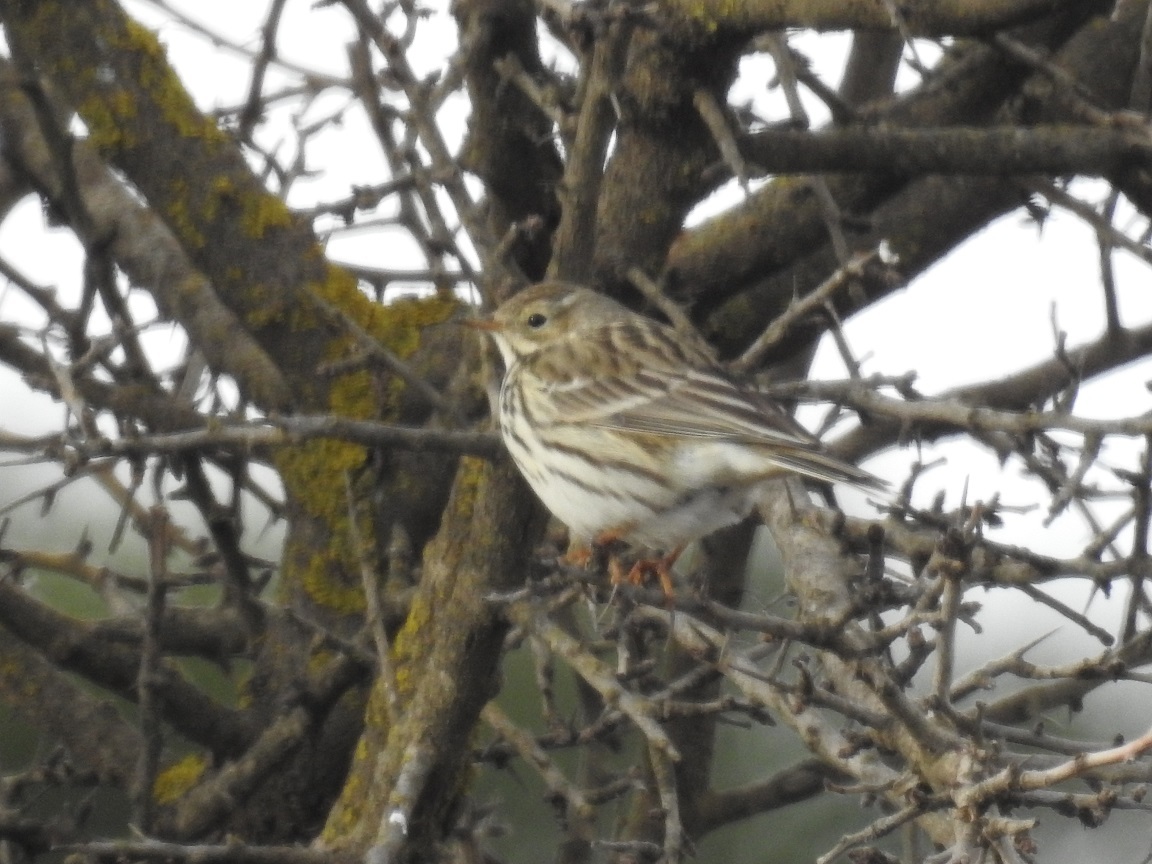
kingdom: Animalia
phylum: Chordata
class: Aves
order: Passeriformes
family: Motacillidae
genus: Anthus
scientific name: Anthus pratensis
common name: Meadow pipit
